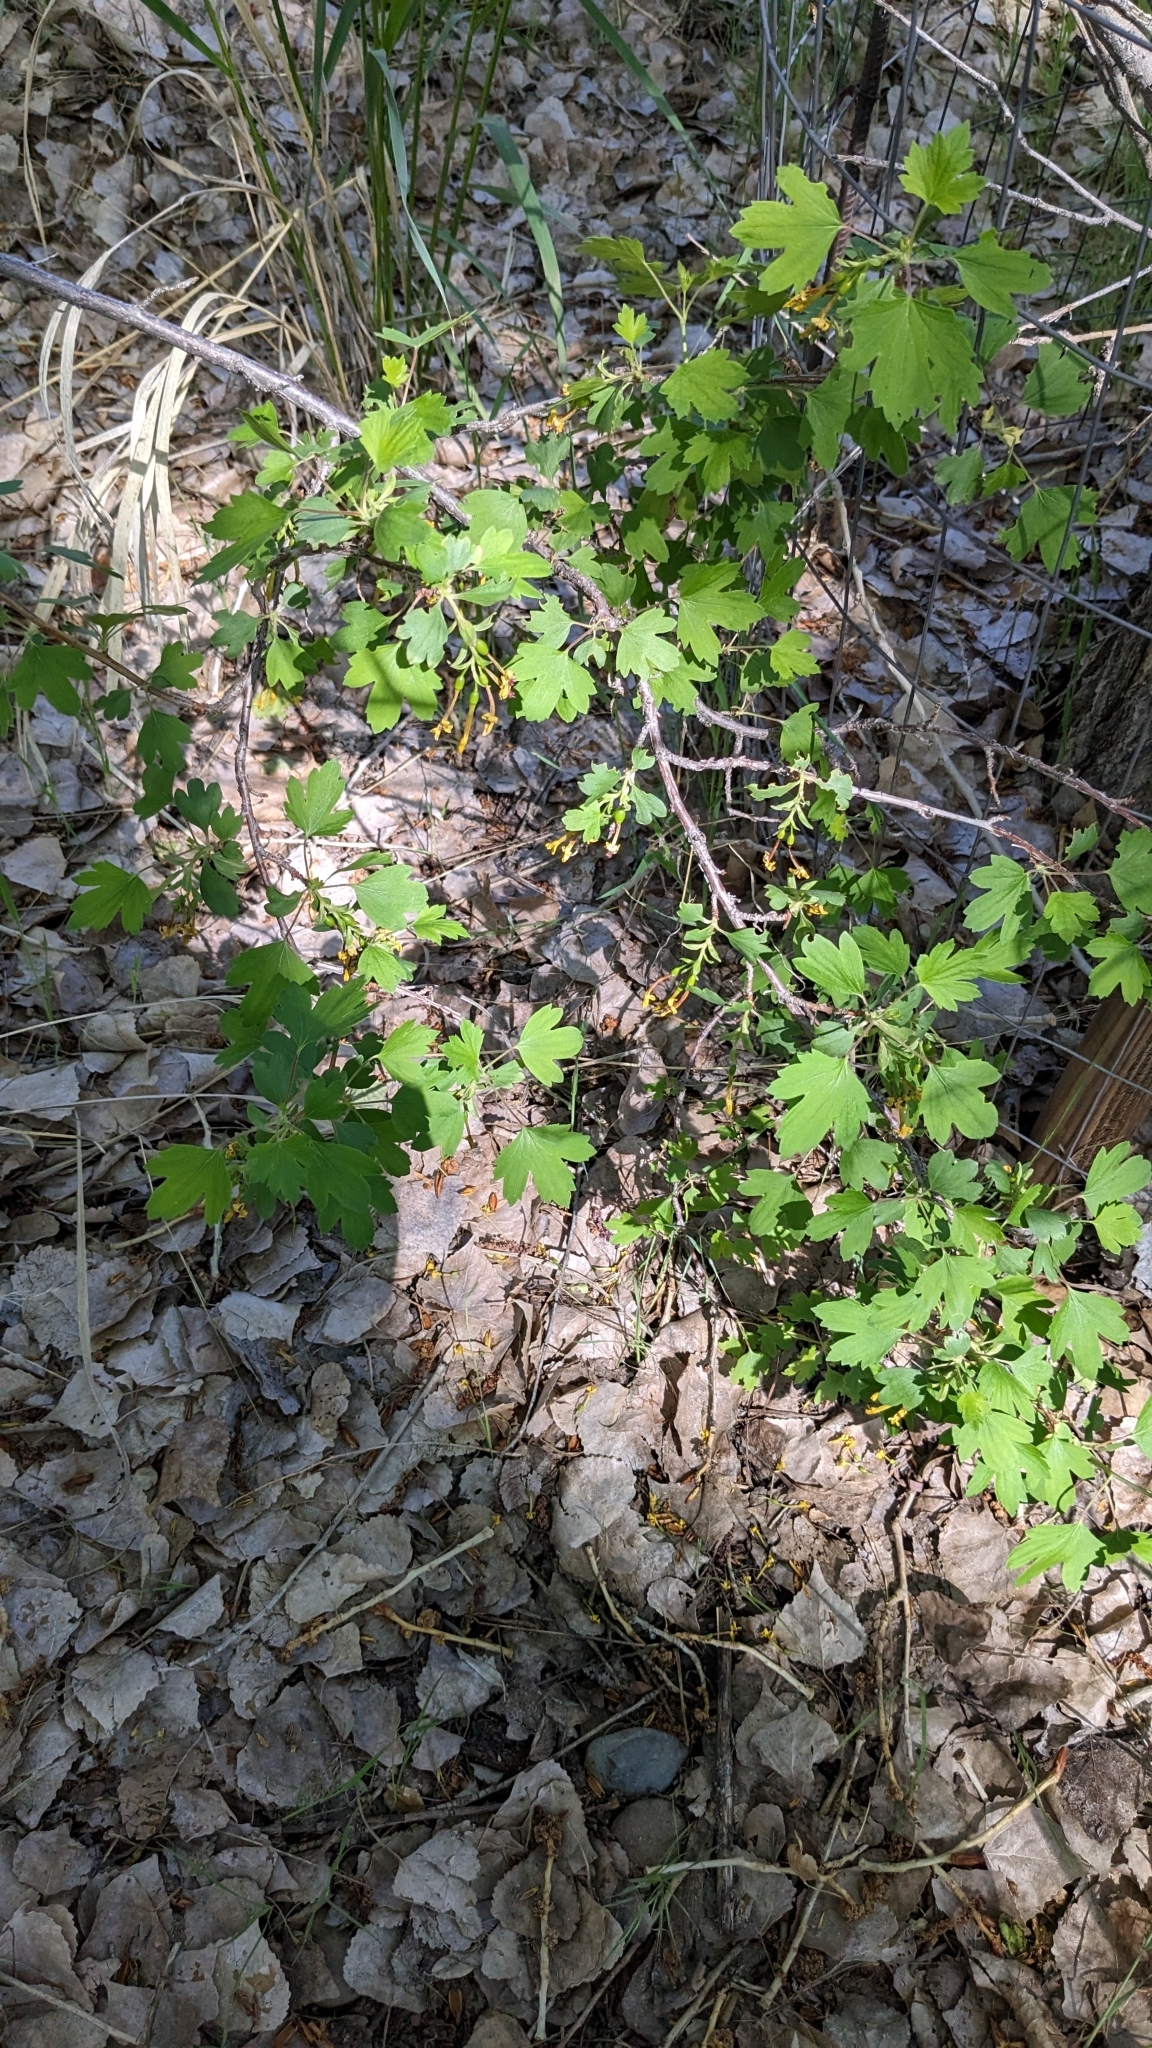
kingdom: Plantae
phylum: Tracheophyta
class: Magnoliopsida
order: Saxifragales
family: Grossulariaceae
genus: Ribes
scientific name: Ribes aureum
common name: Golden currant
